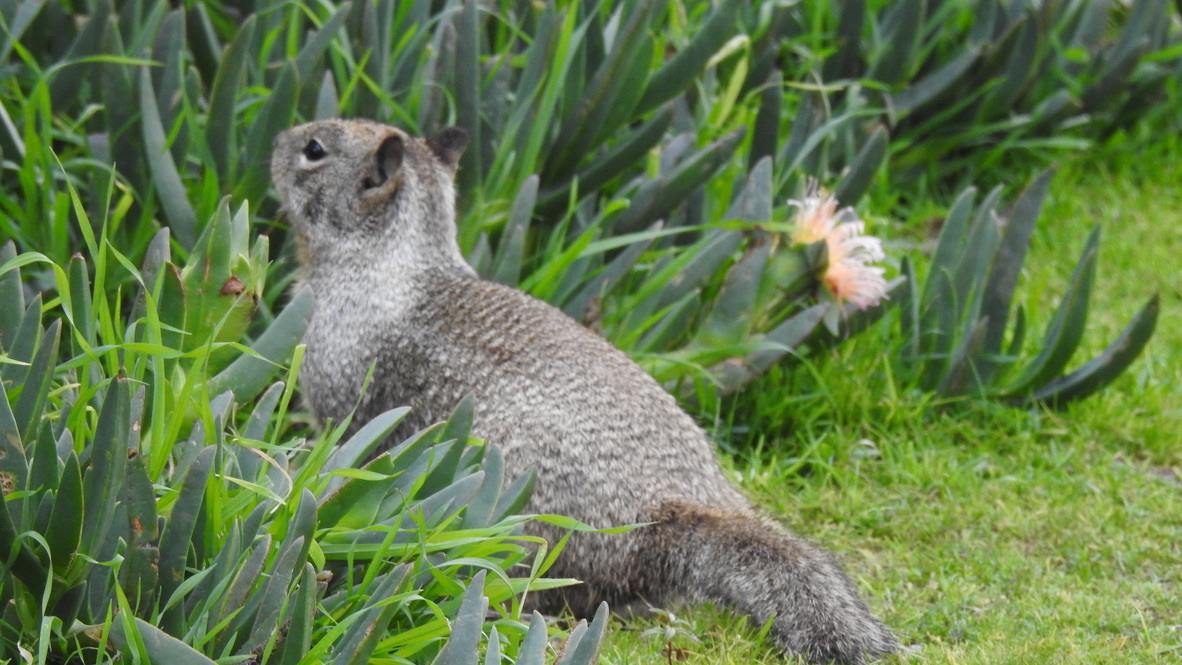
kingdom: Animalia
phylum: Chordata
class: Mammalia
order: Rodentia
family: Sciuridae
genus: Otospermophilus
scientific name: Otospermophilus beecheyi
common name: California ground squirrel
